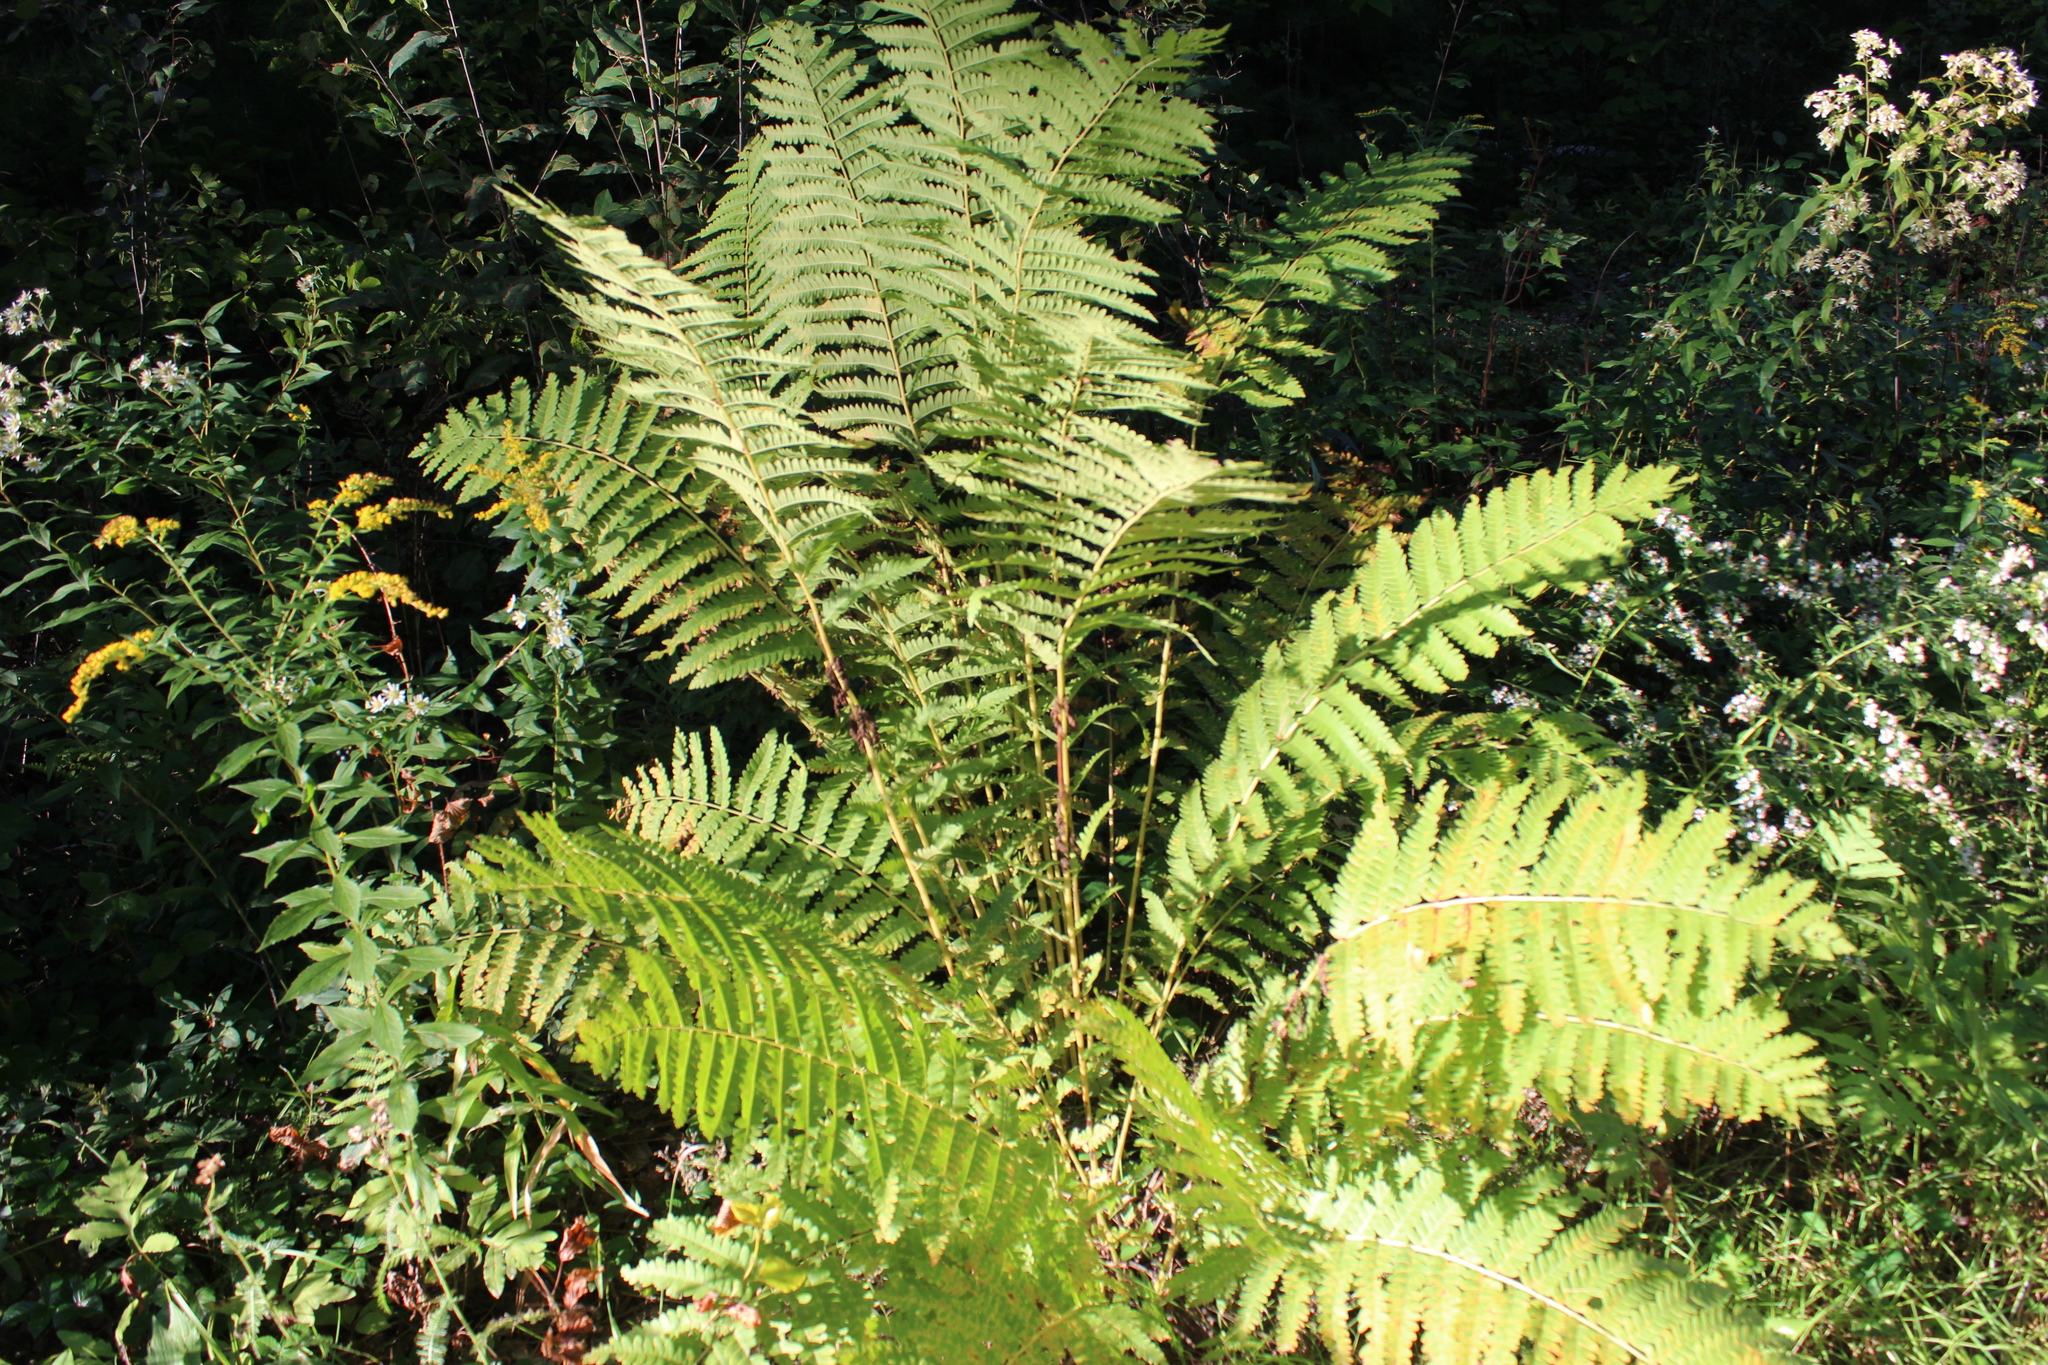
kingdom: Plantae
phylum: Tracheophyta
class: Polypodiopsida
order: Osmundales
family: Osmundaceae
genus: Claytosmunda
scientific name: Claytosmunda claytoniana
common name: Clayton's fern
